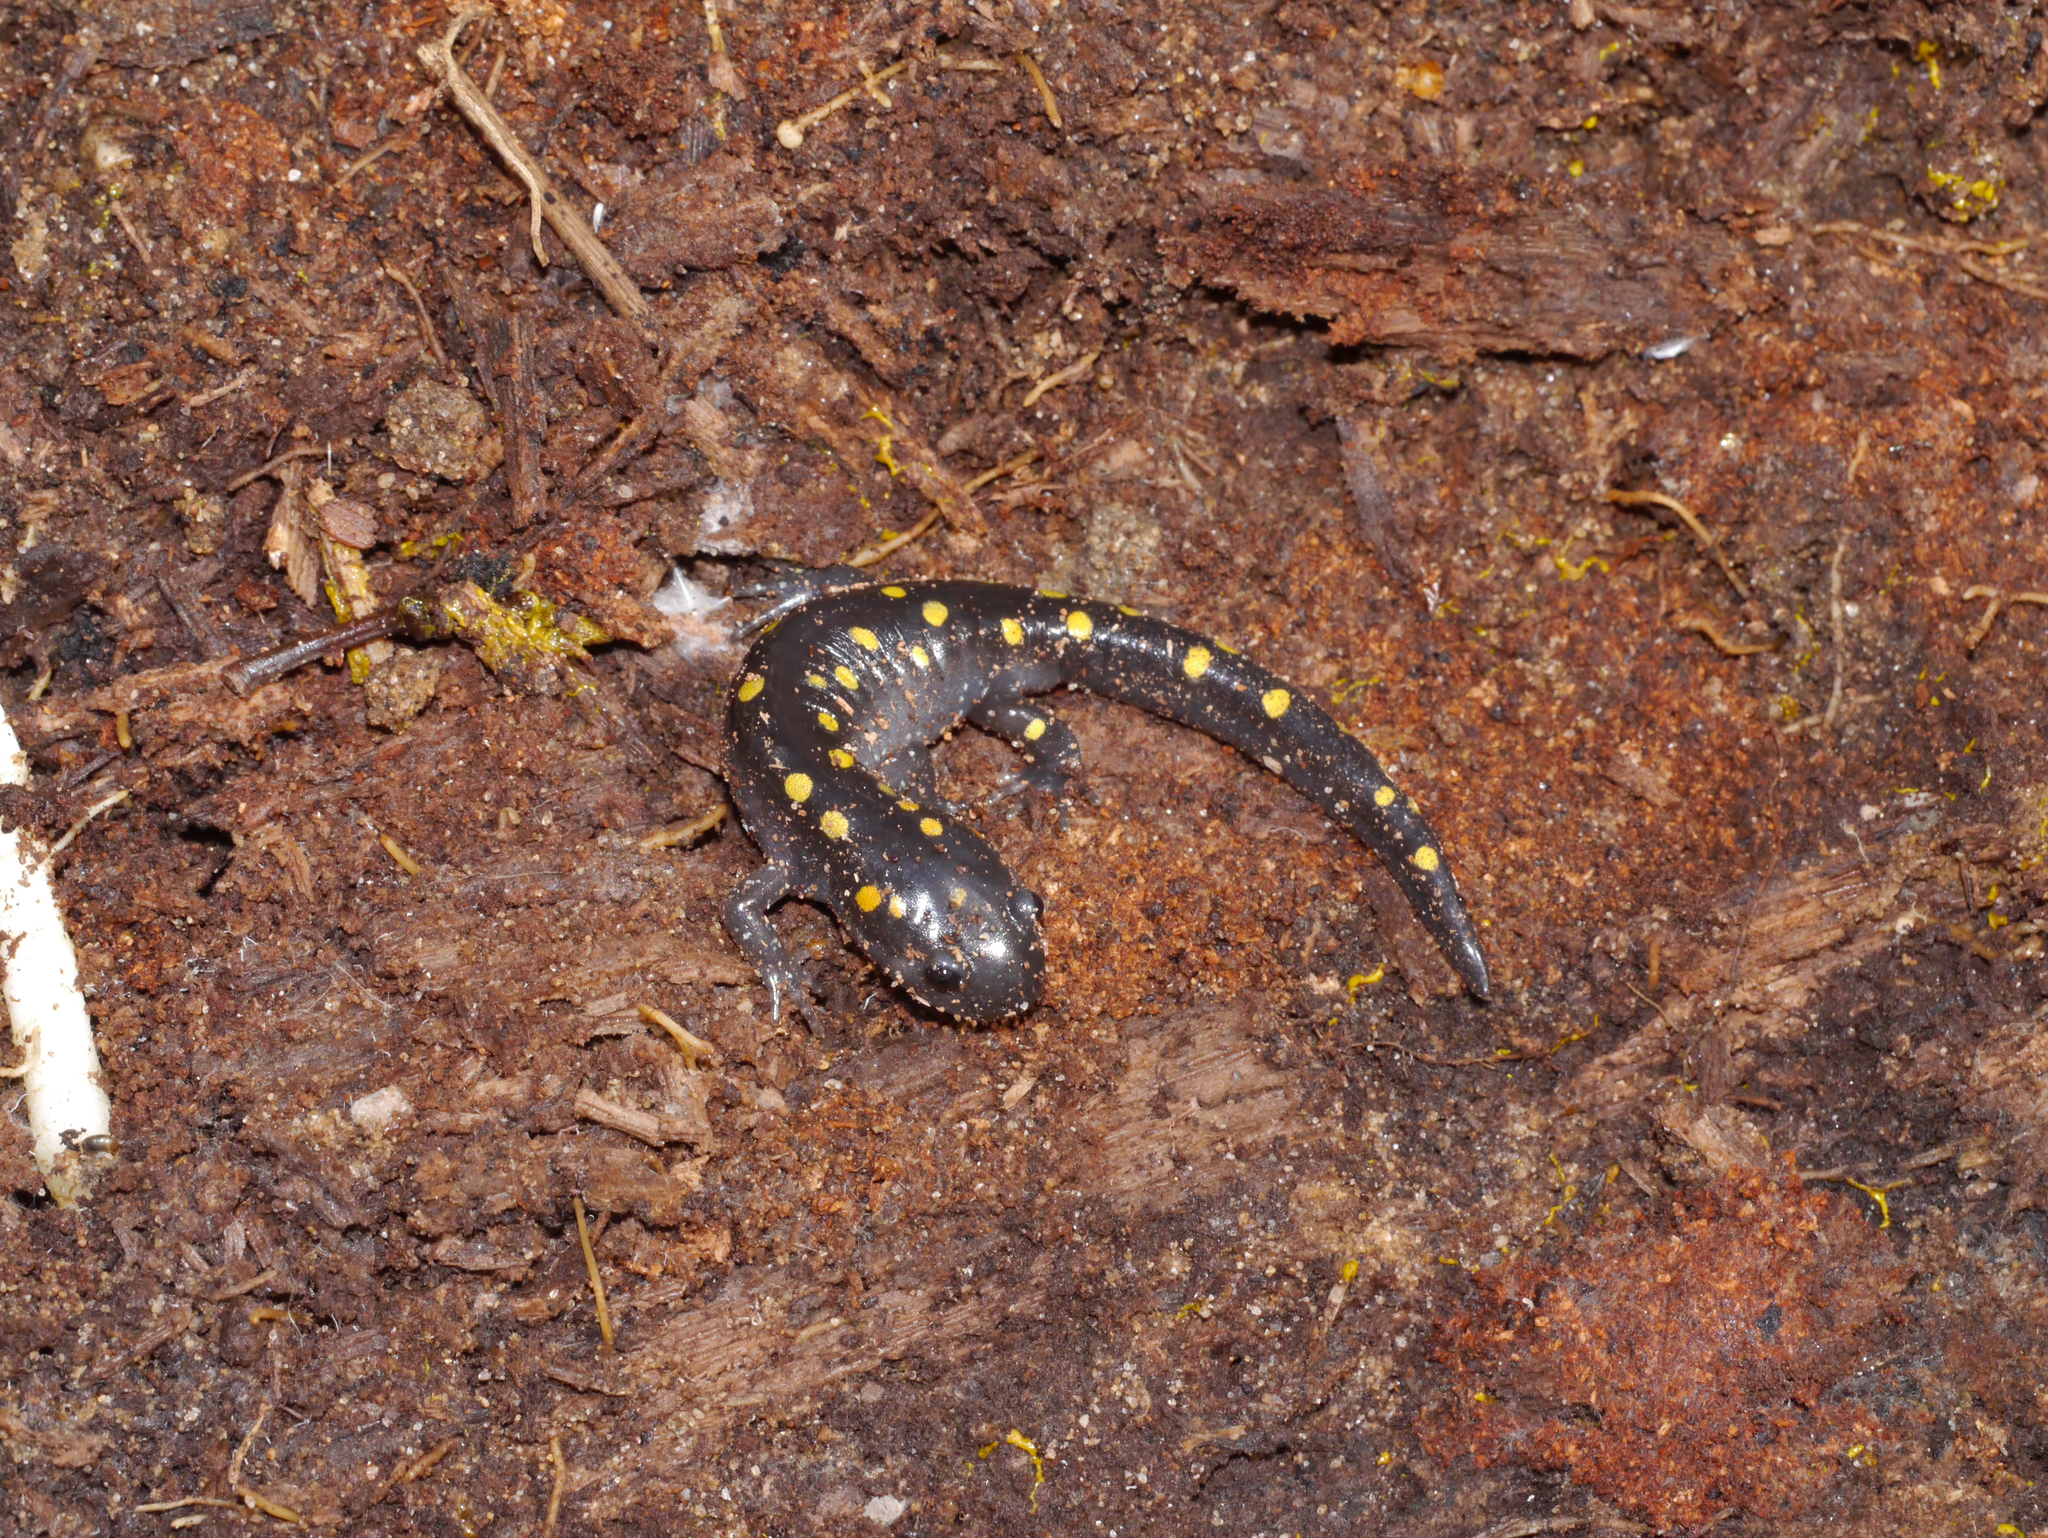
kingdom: Animalia
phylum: Chordata
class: Amphibia
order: Caudata
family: Ambystomatidae
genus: Ambystoma
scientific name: Ambystoma maculatum
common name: Spotted salamander
